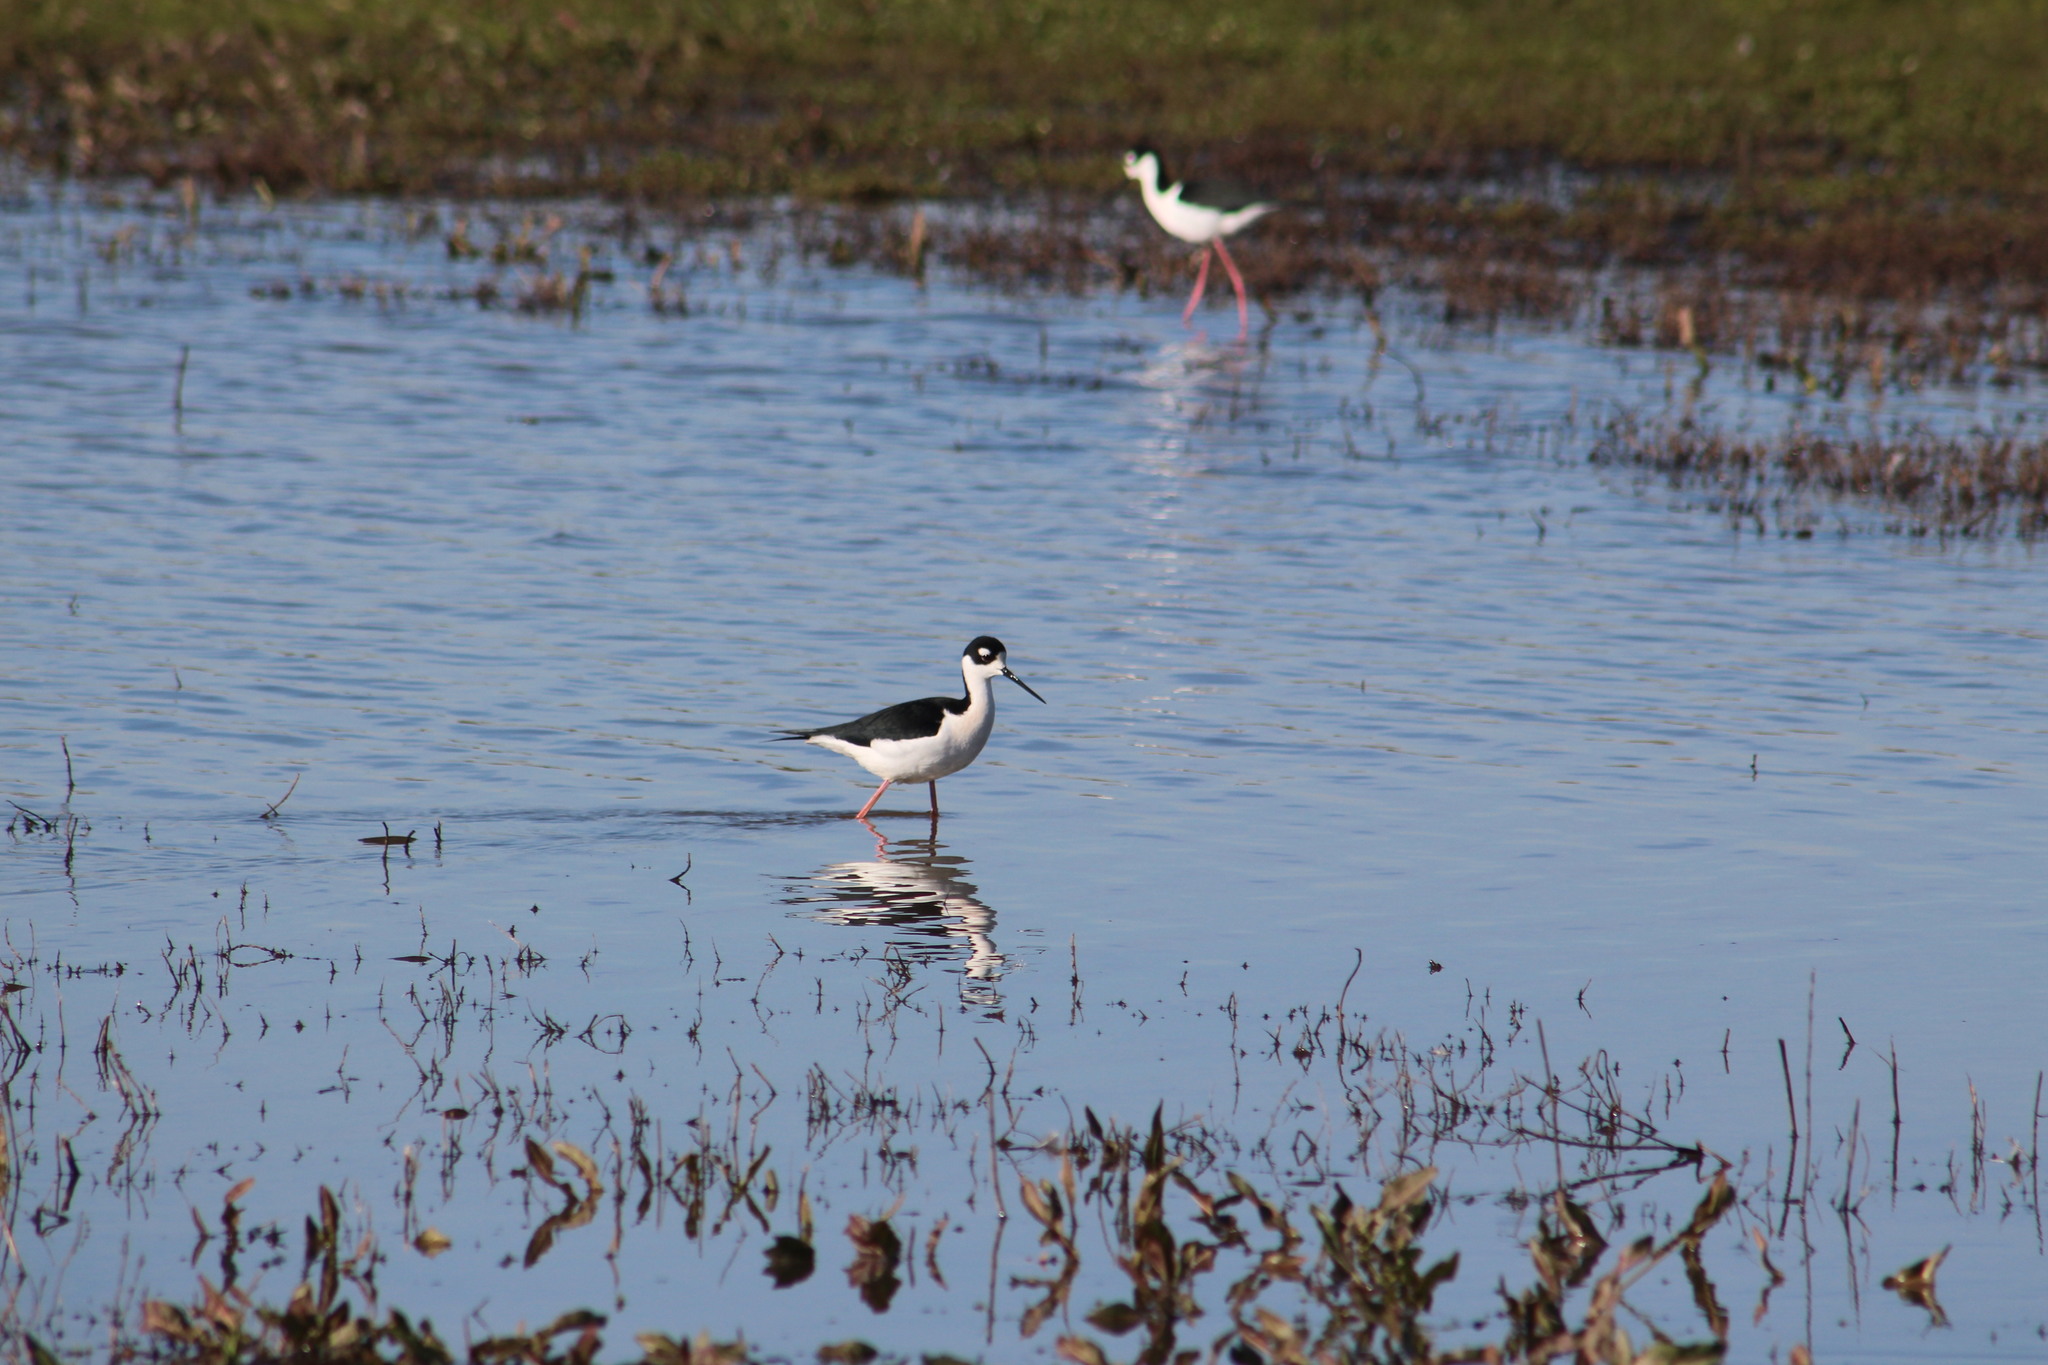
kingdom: Animalia
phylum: Chordata
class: Aves
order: Charadriiformes
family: Recurvirostridae
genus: Himantopus
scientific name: Himantopus mexicanus
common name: Black-necked stilt
